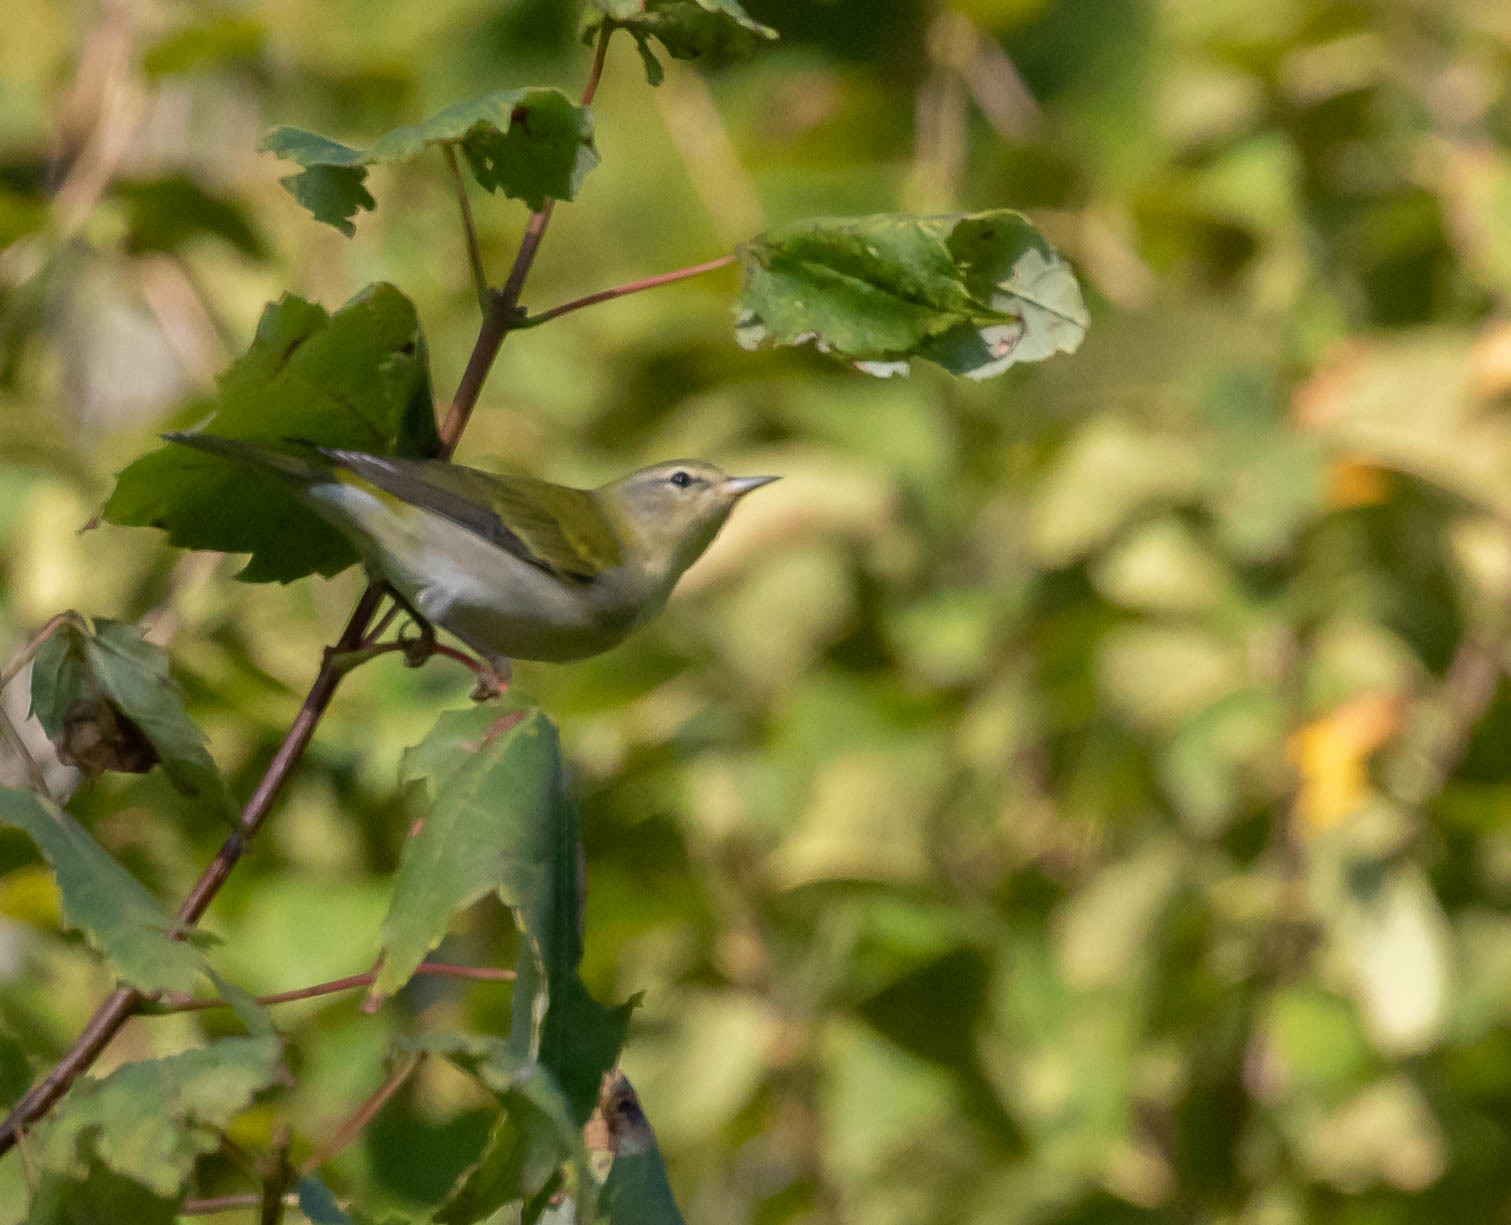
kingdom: Animalia
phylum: Chordata
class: Aves
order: Passeriformes
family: Parulidae
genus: Leiothlypis
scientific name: Leiothlypis peregrina
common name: Tennessee warbler
